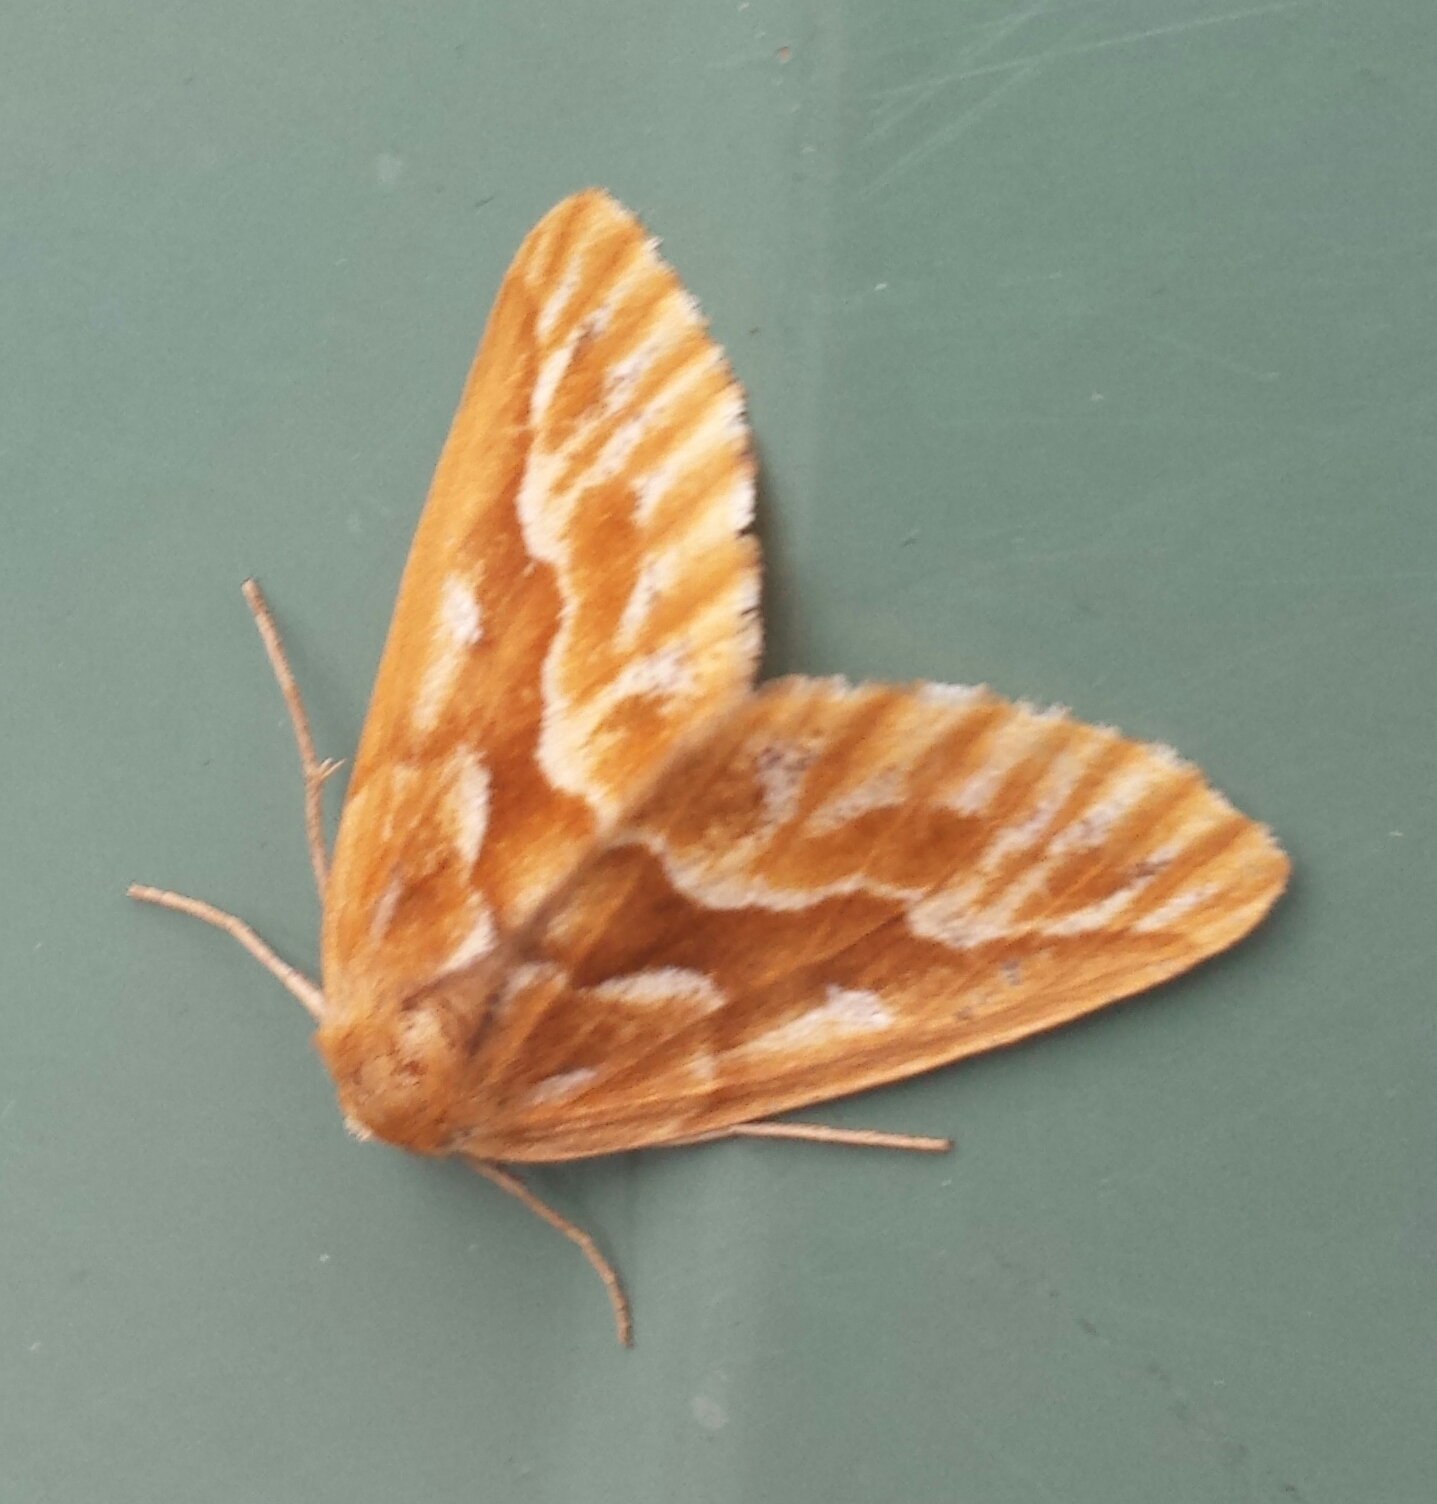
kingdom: Animalia
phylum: Arthropoda
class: Insecta
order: Lepidoptera
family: Geometridae
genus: Caripeta
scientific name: Caripeta piniata
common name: Northern pine looper moth
